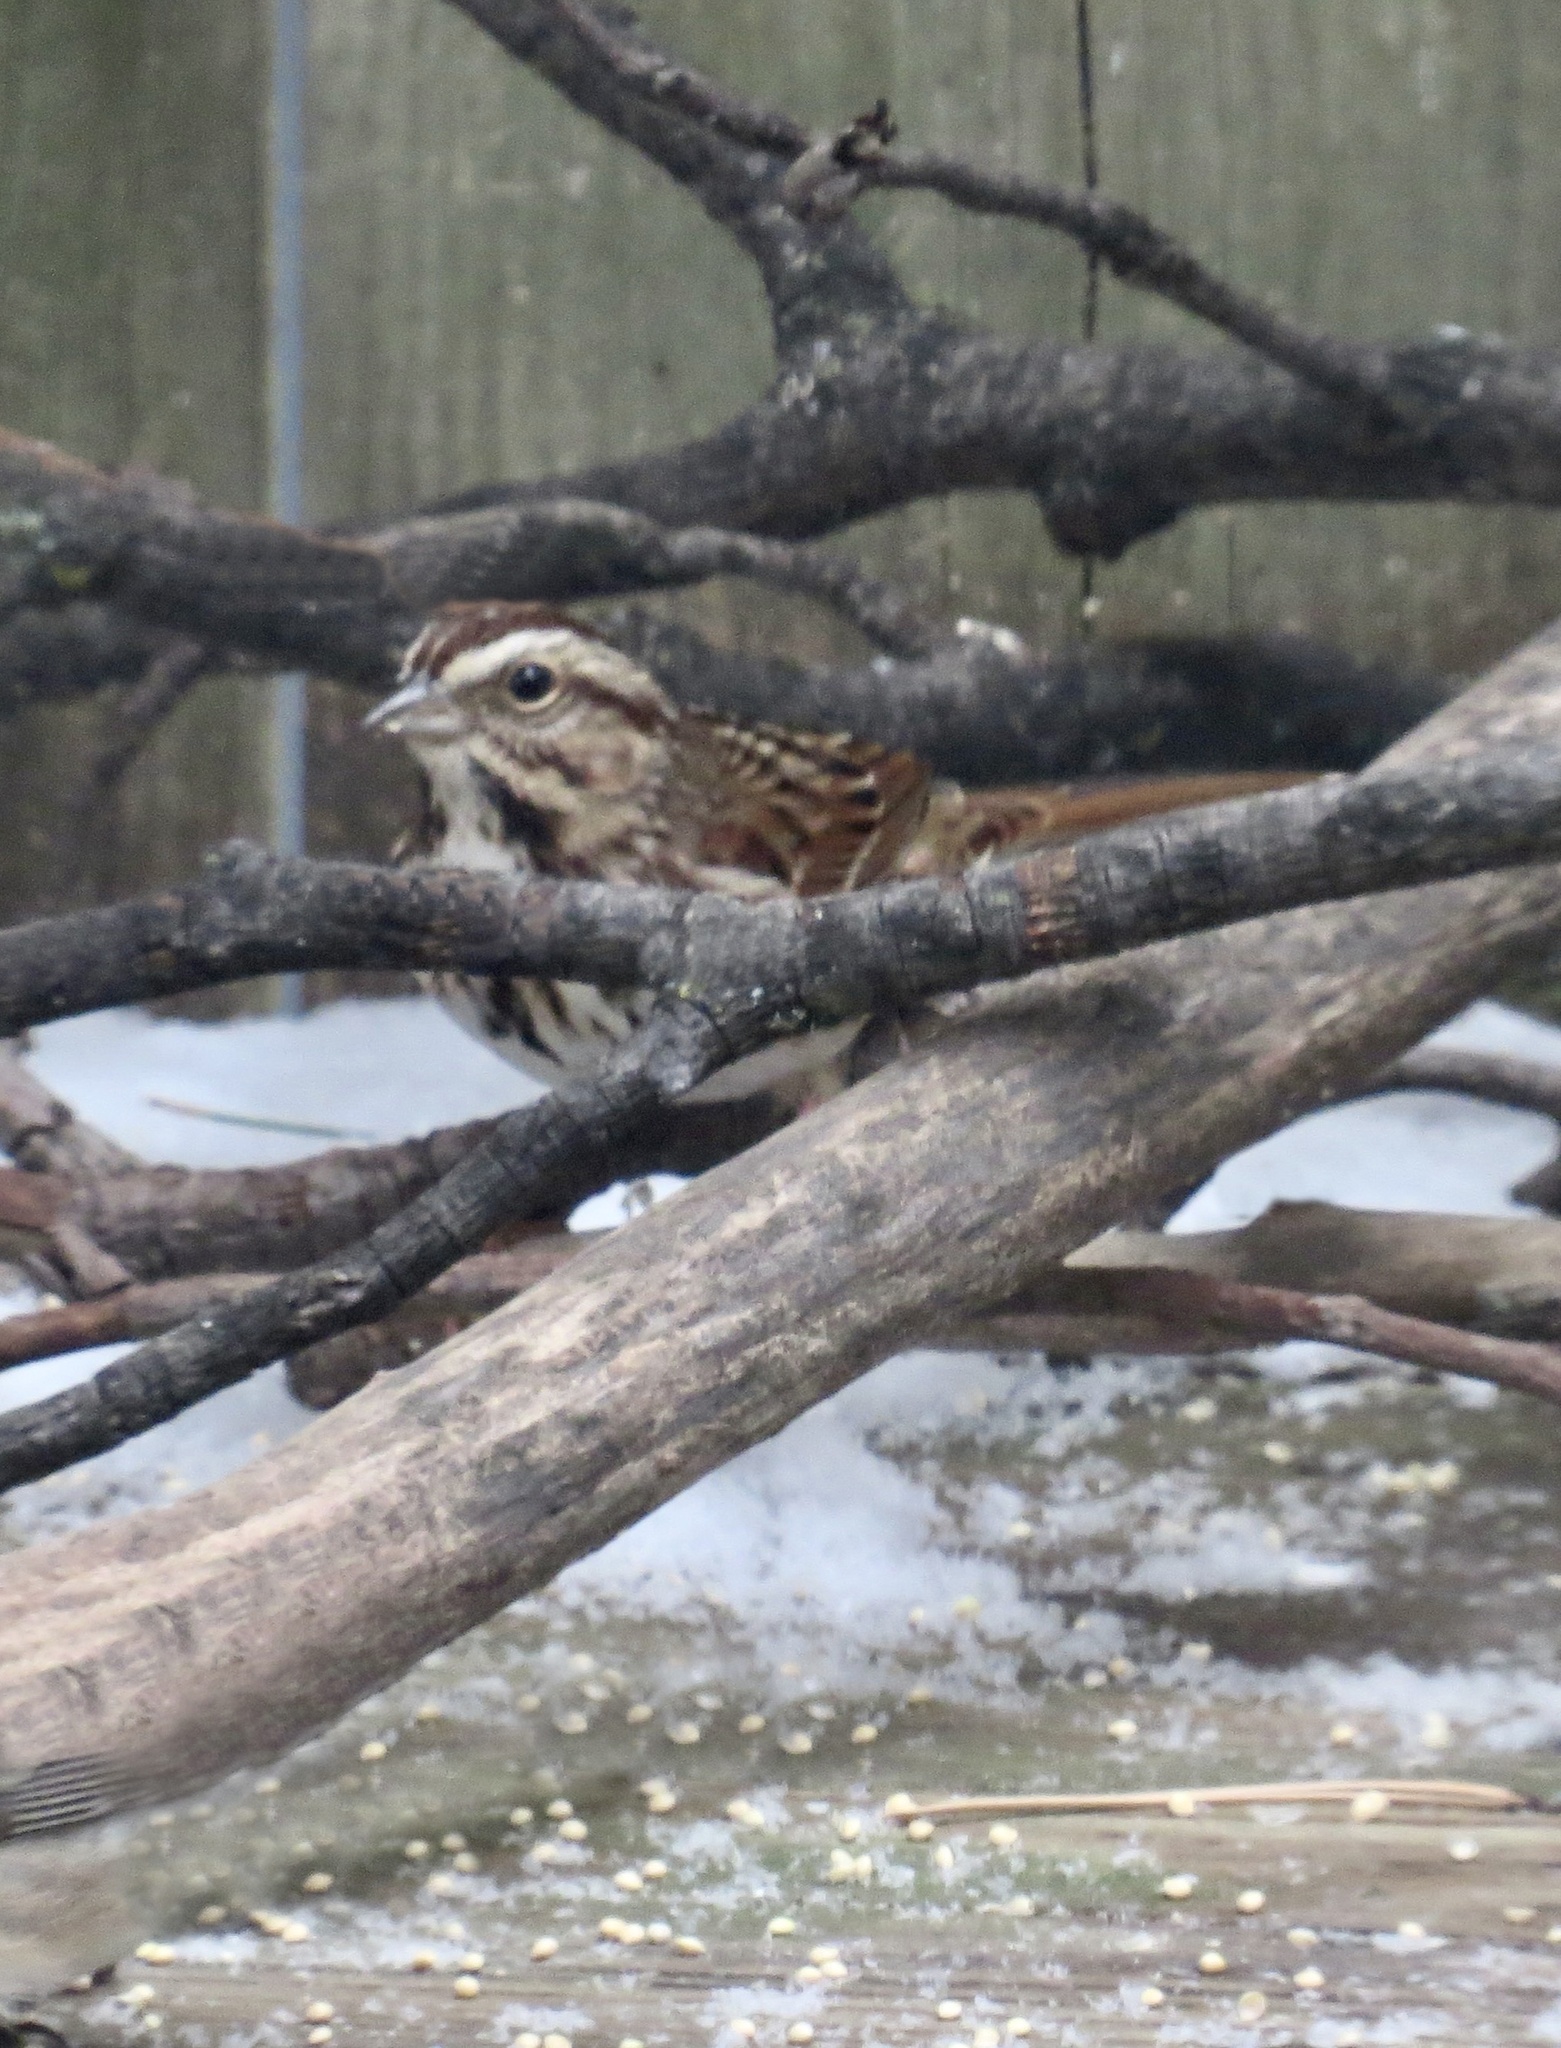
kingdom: Animalia
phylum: Chordata
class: Aves
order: Passeriformes
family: Passerellidae
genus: Melospiza
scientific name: Melospiza melodia
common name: Song sparrow
